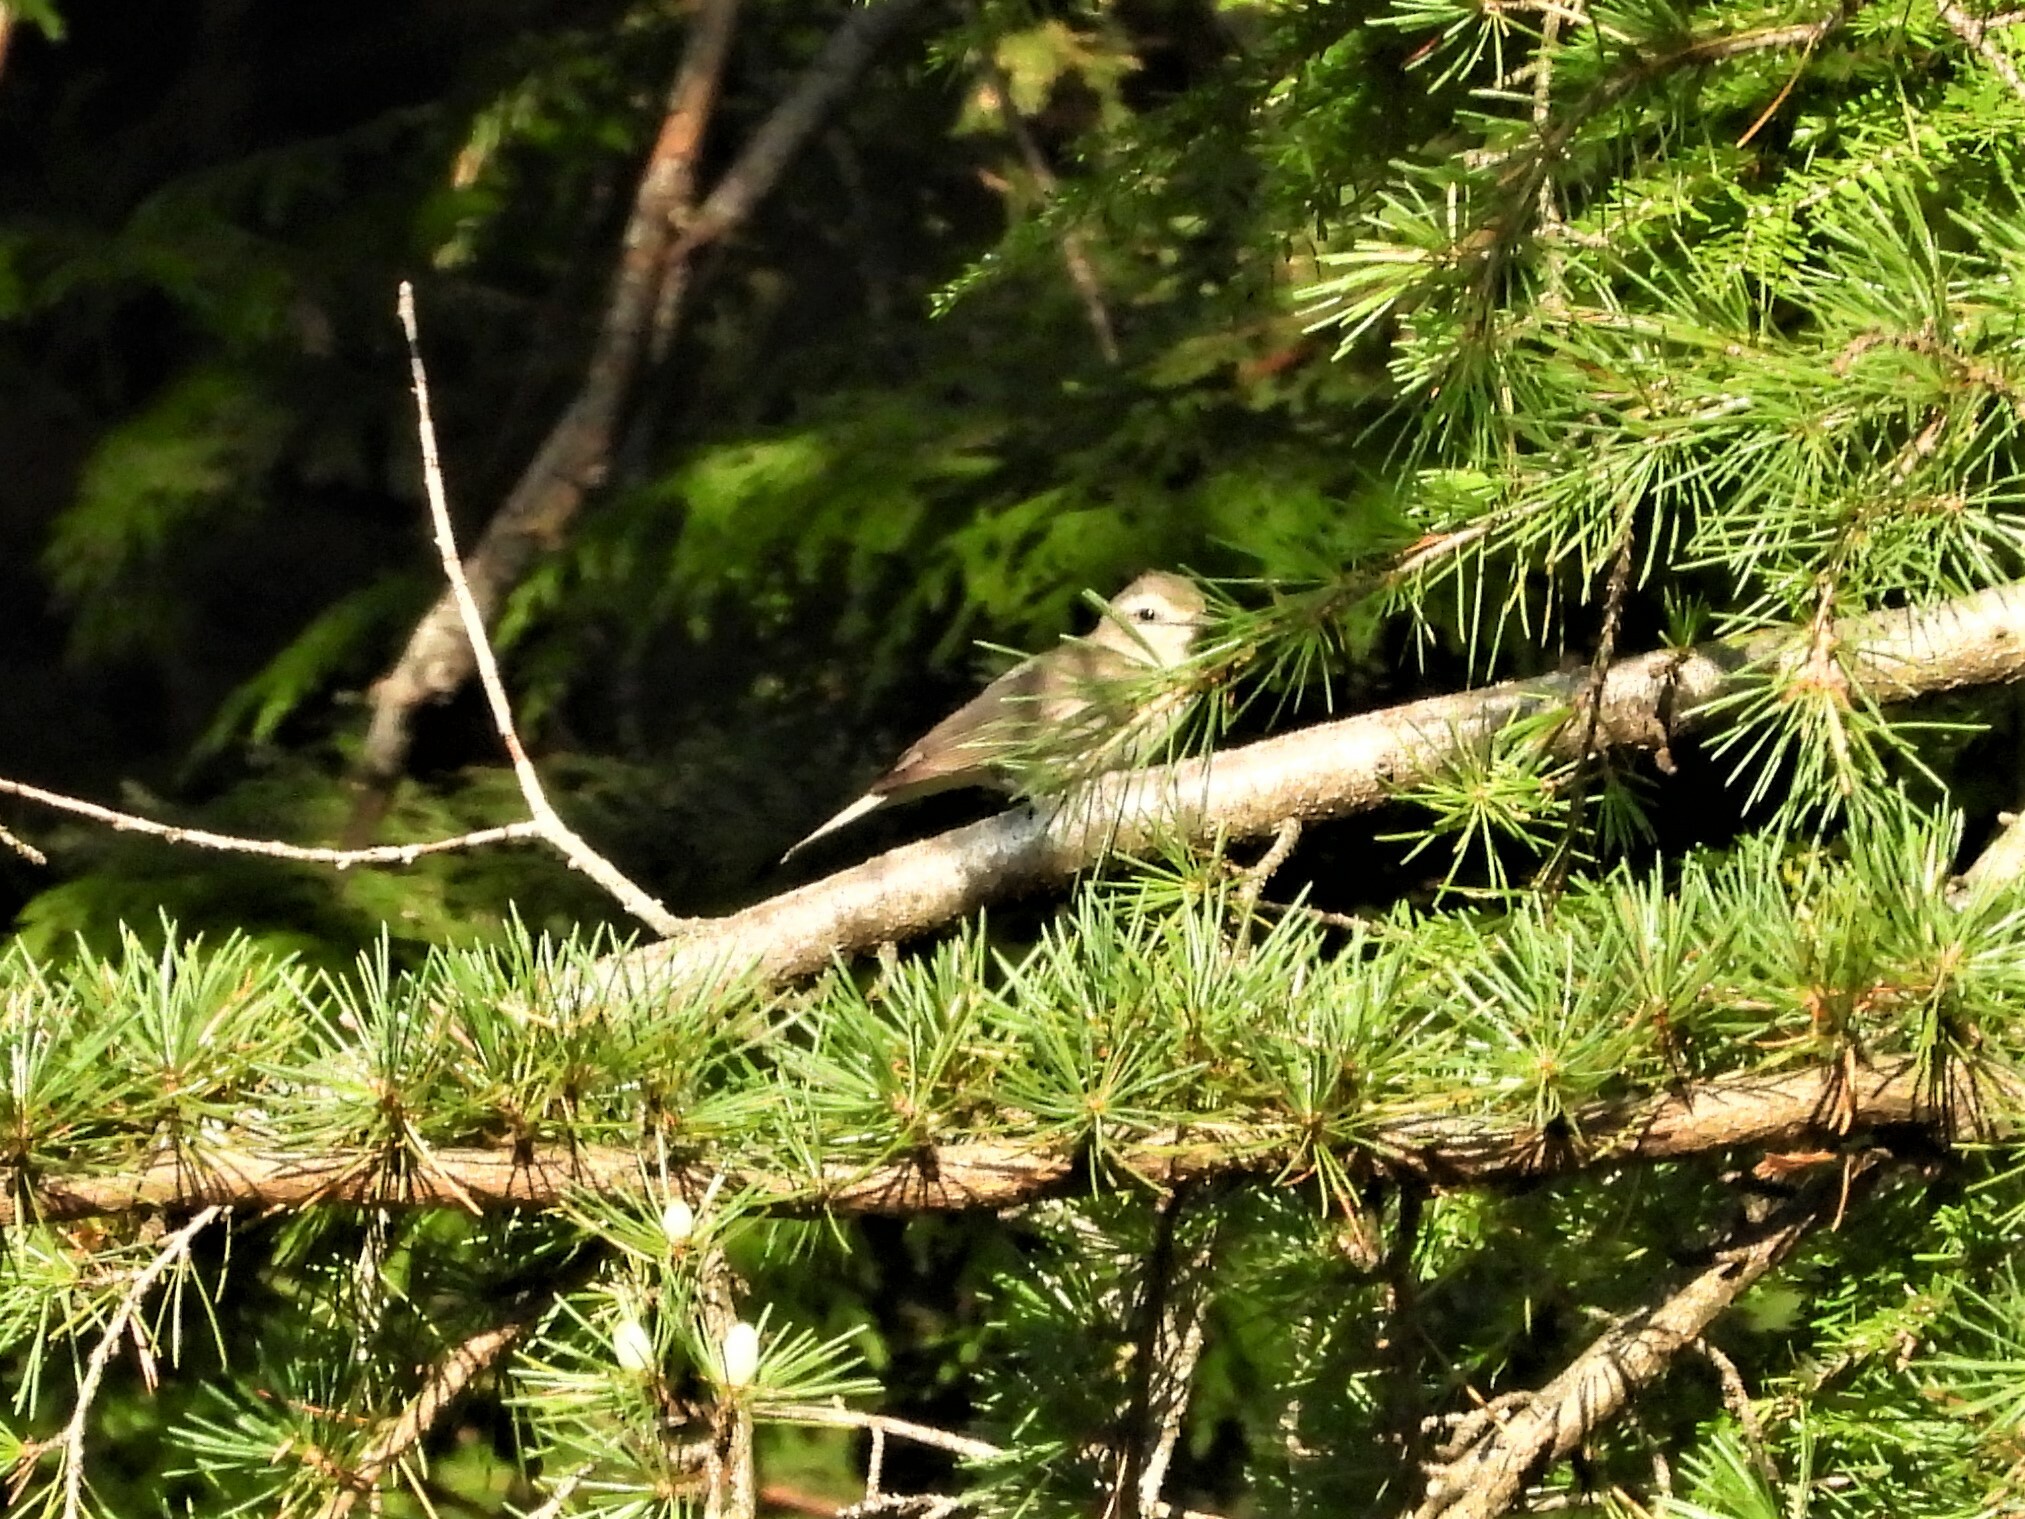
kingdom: Animalia
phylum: Chordata
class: Aves
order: Passeriformes
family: Vireonidae
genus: Vireo
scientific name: Vireo gilvus
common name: Warbling vireo
